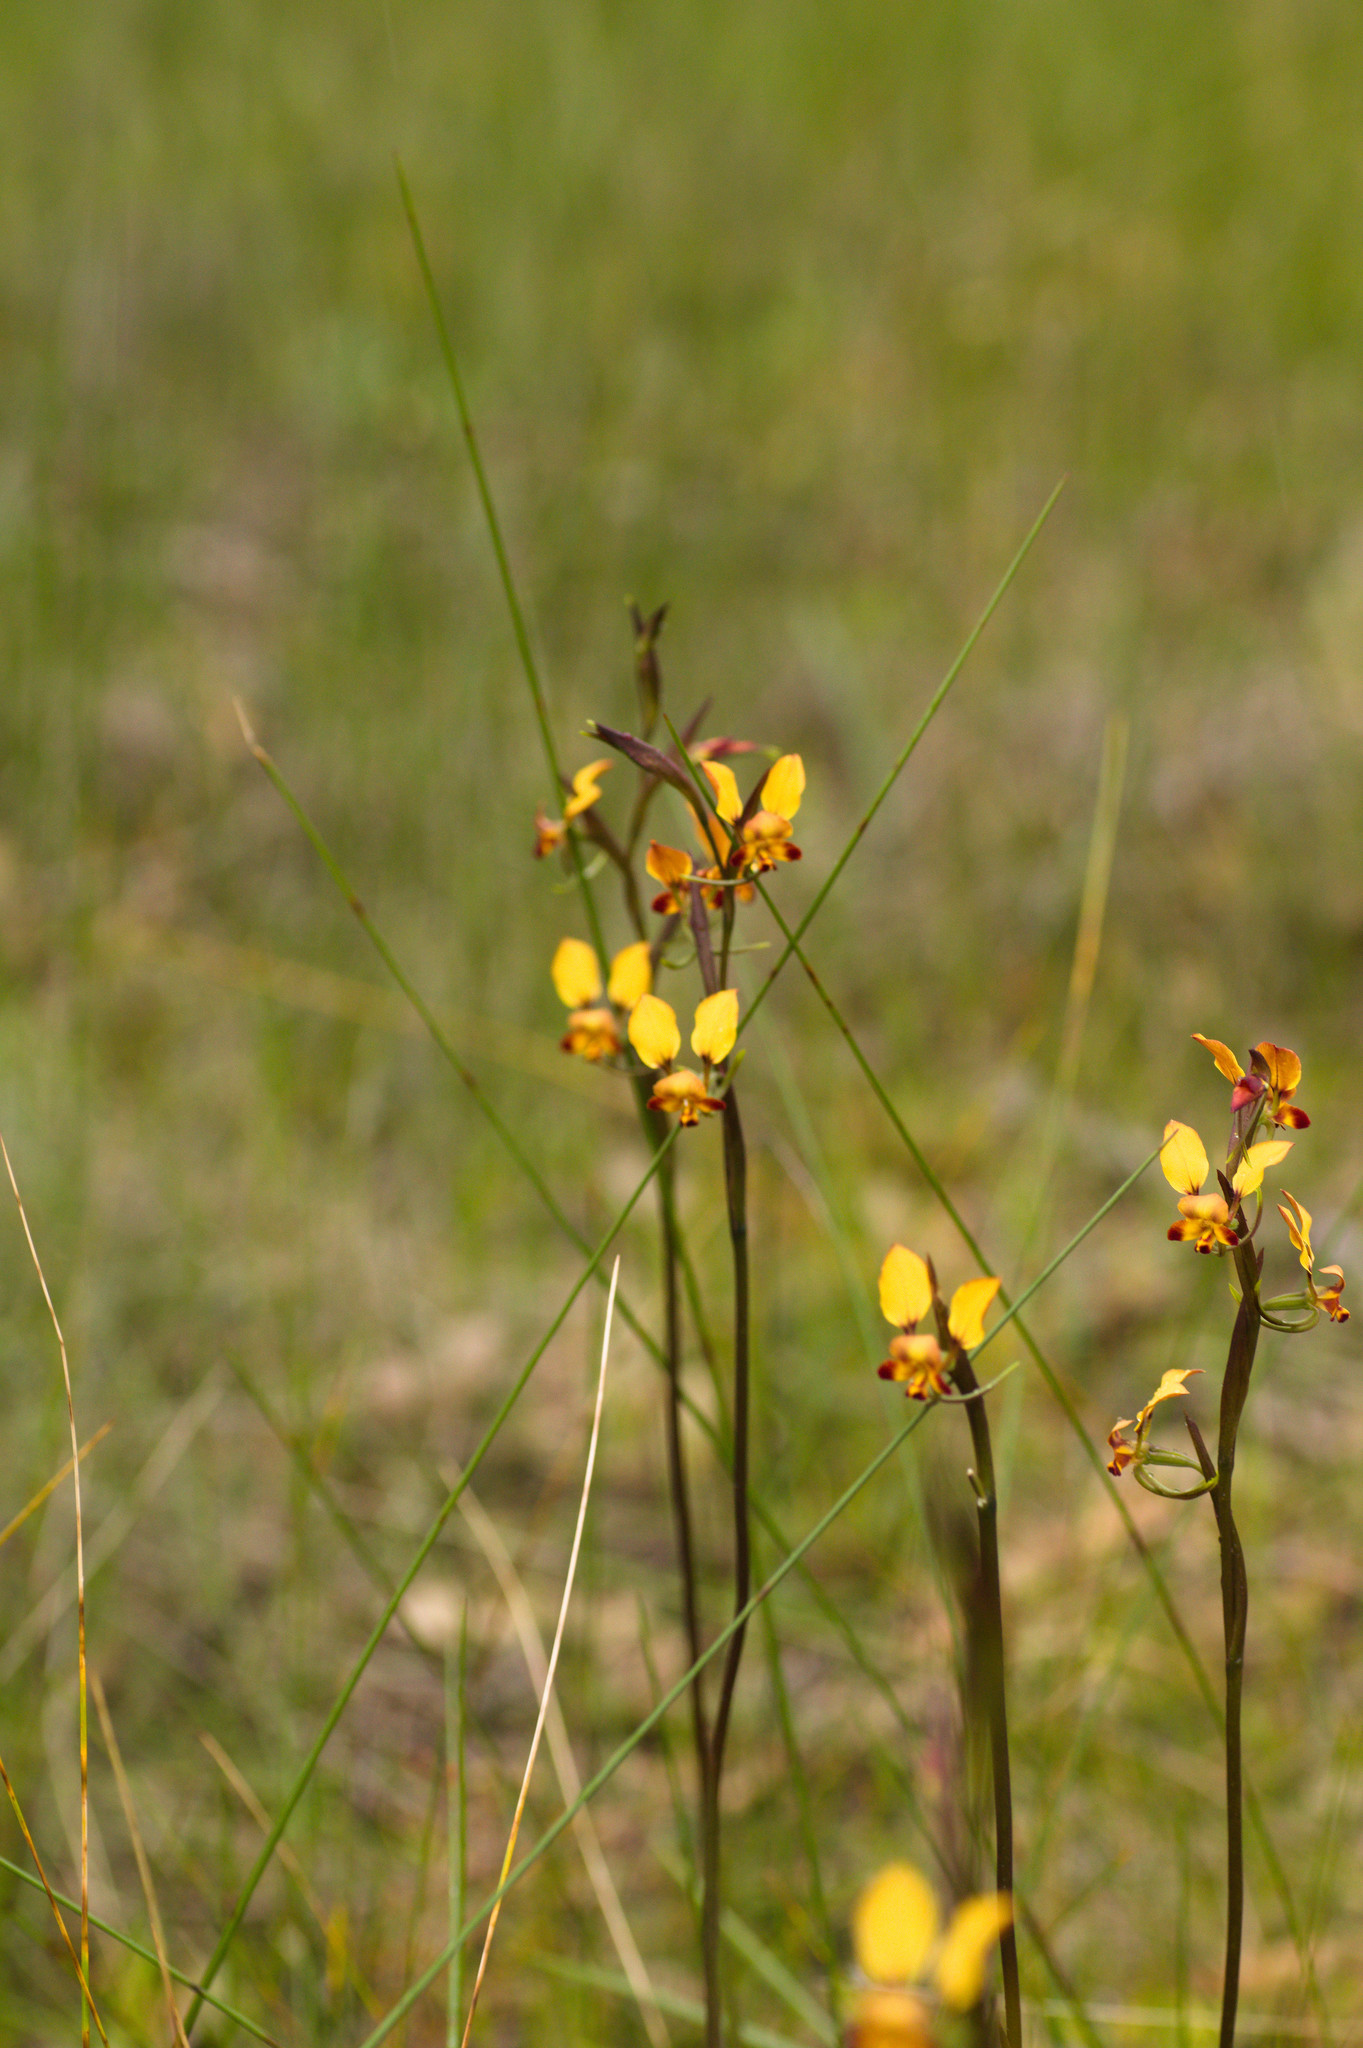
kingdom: Plantae
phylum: Tracheophyta
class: Liliopsida
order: Asparagales
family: Orchidaceae
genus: Diuris
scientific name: Diuris porrifolia
